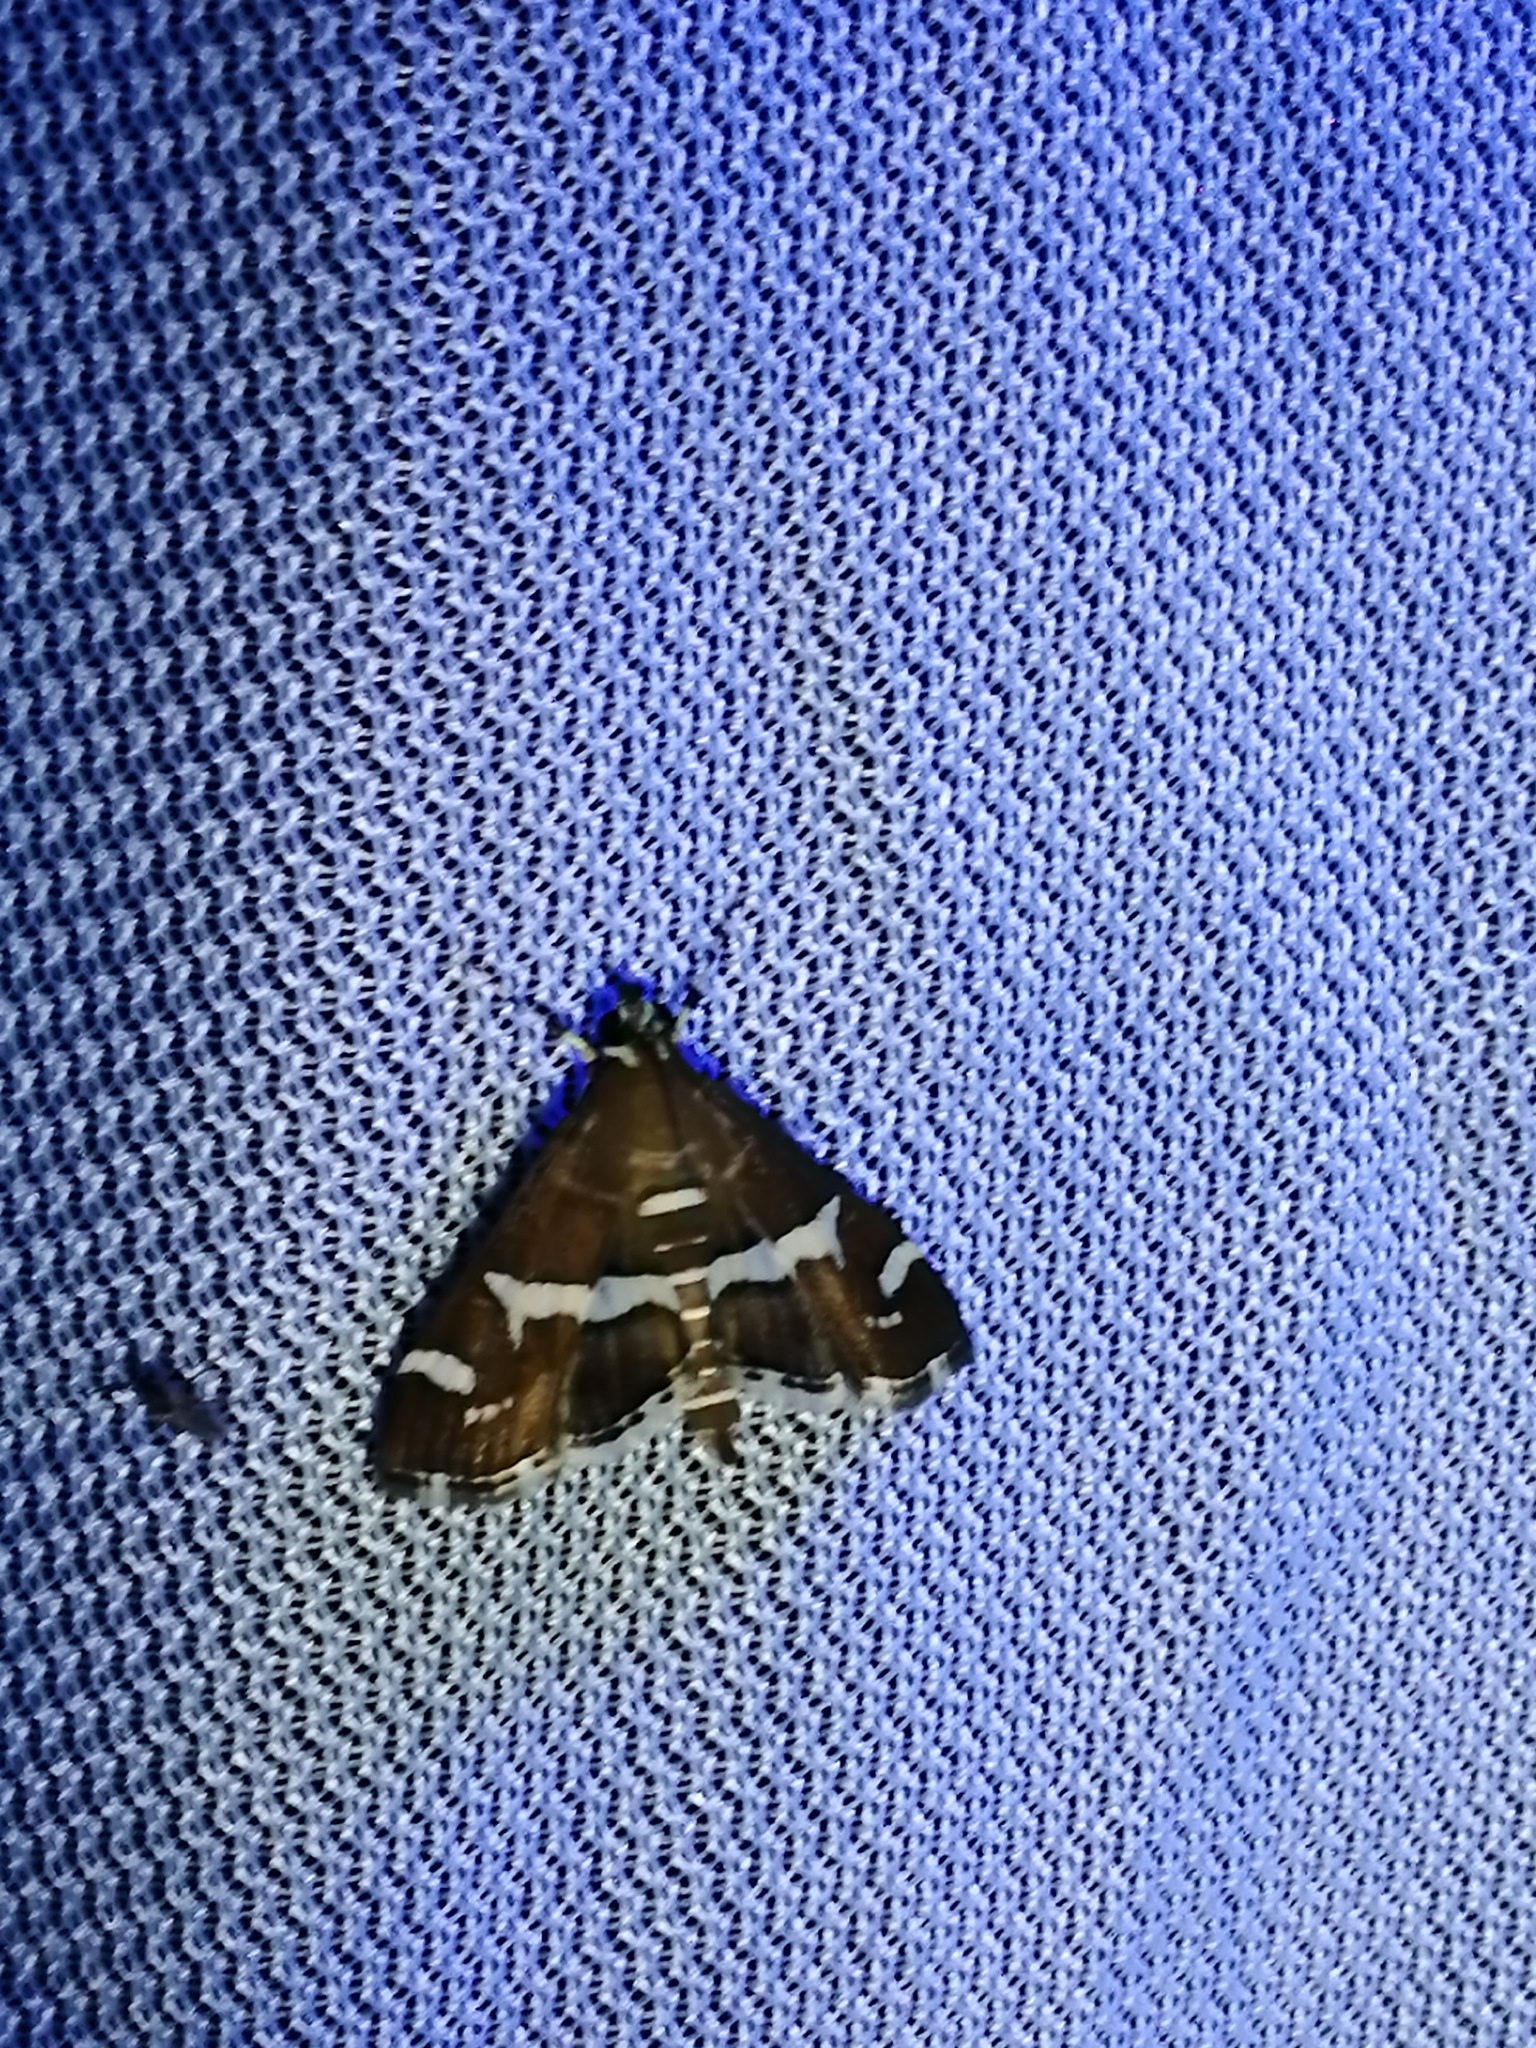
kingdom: Animalia
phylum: Arthropoda
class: Insecta
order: Lepidoptera
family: Crambidae
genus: Spoladea
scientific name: Spoladea recurvalis
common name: Beet webworm moth
